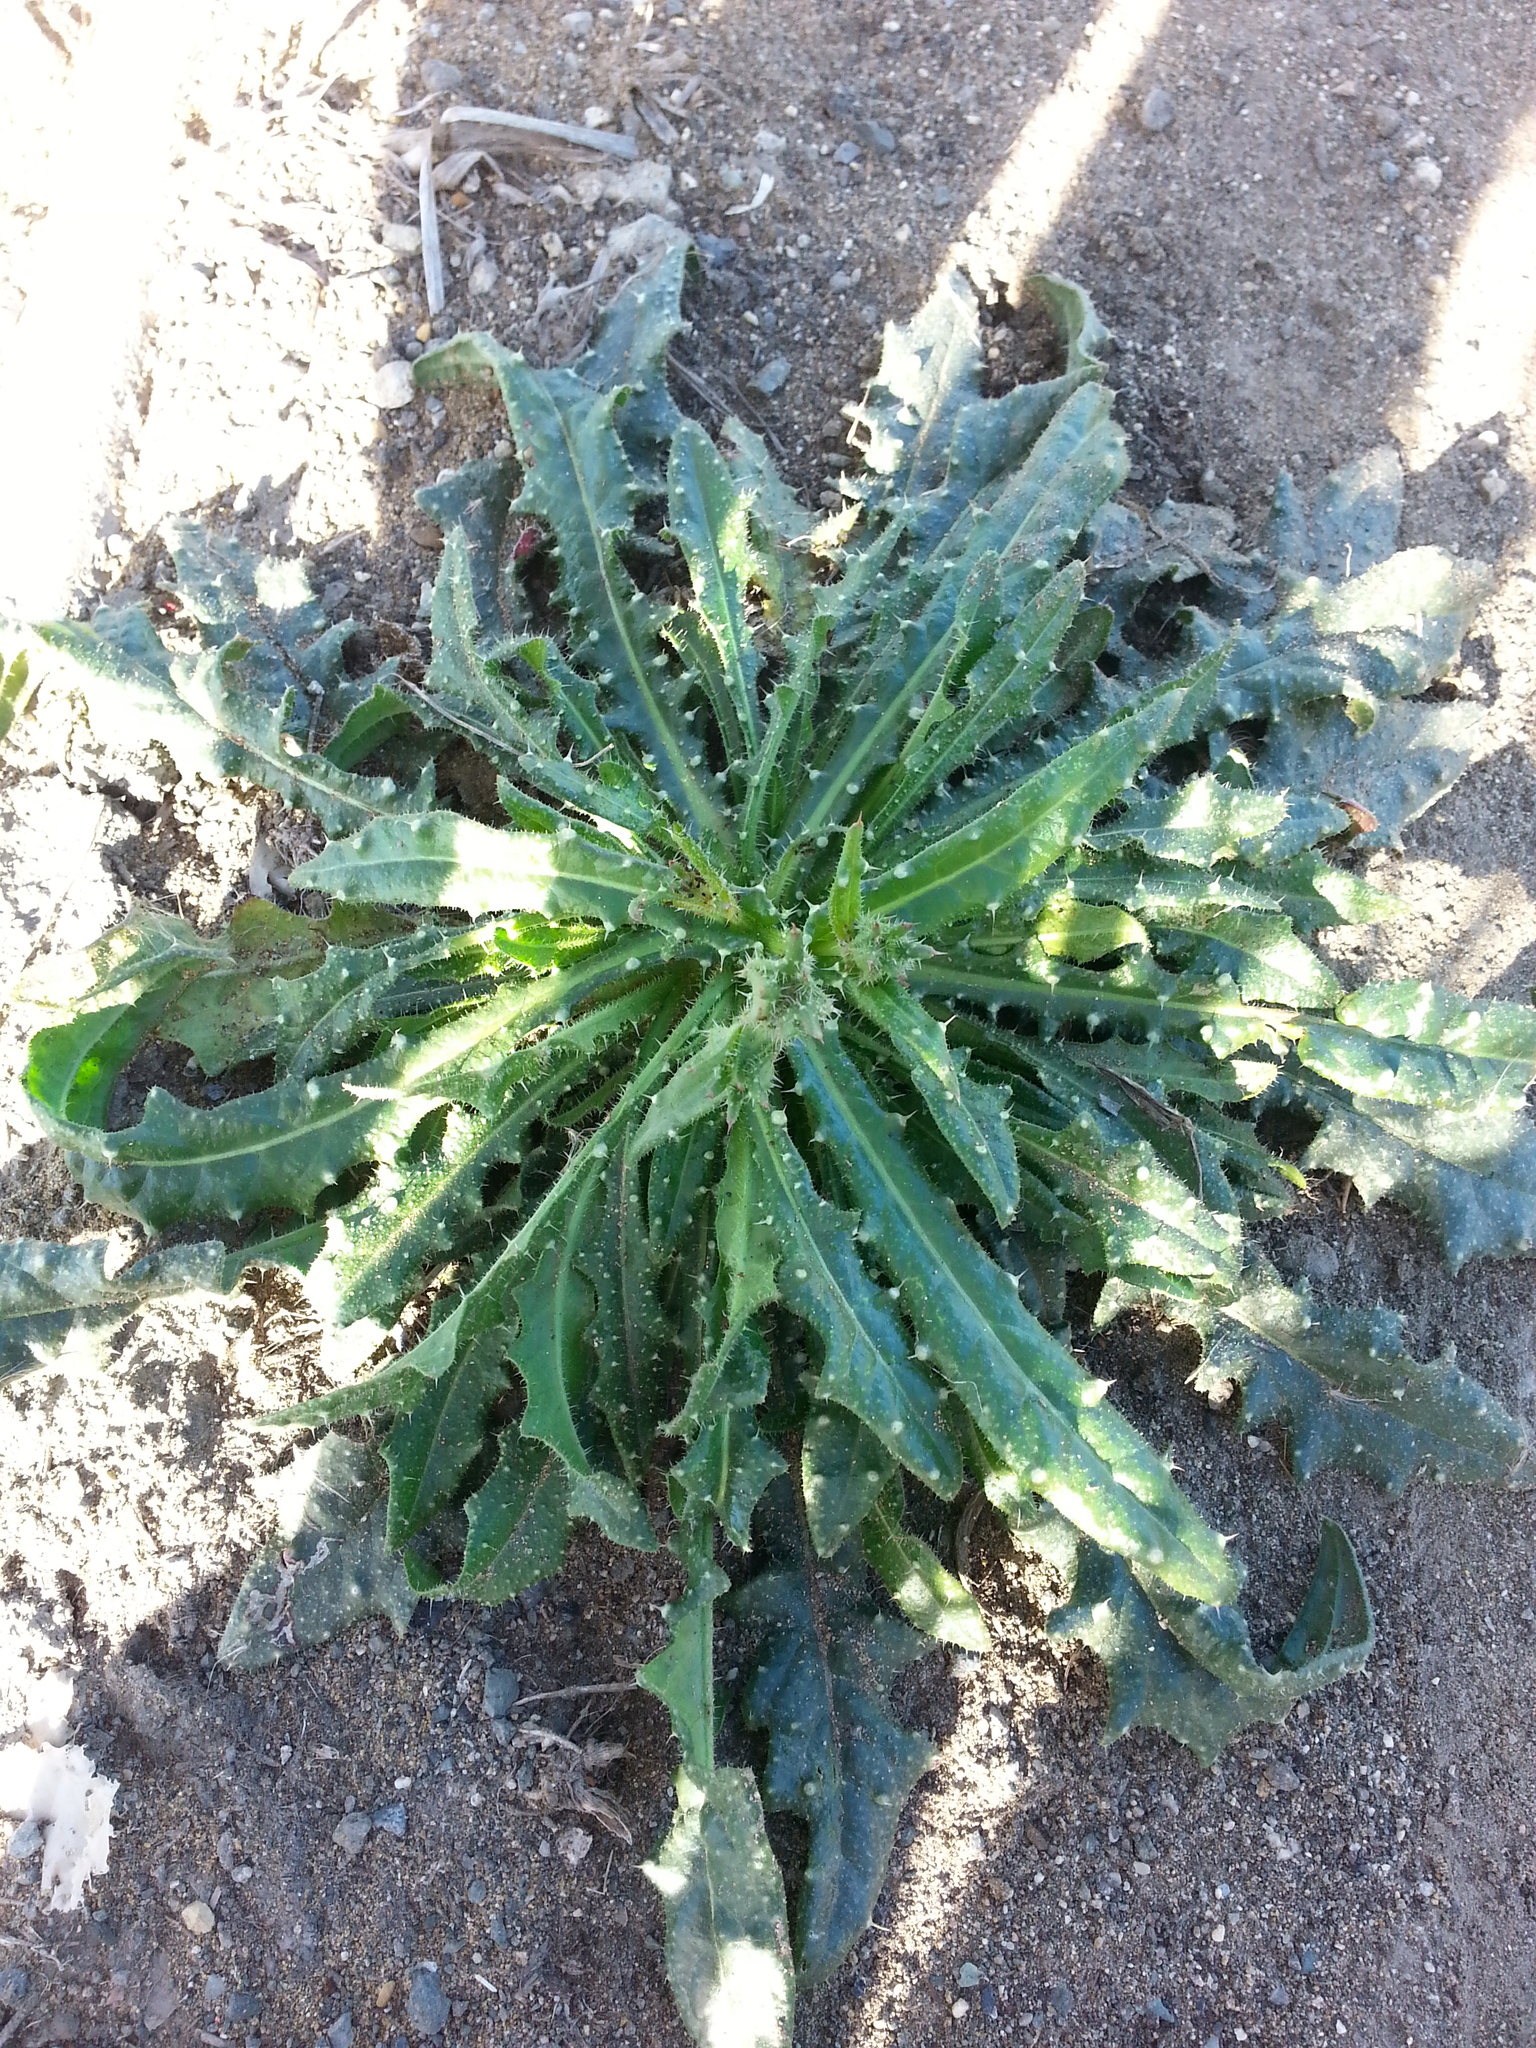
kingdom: Plantae
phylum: Tracheophyta
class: Magnoliopsida
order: Asterales
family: Asteraceae
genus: Helminthotheca
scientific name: Helminthotheca echioides
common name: Ox-tongue
